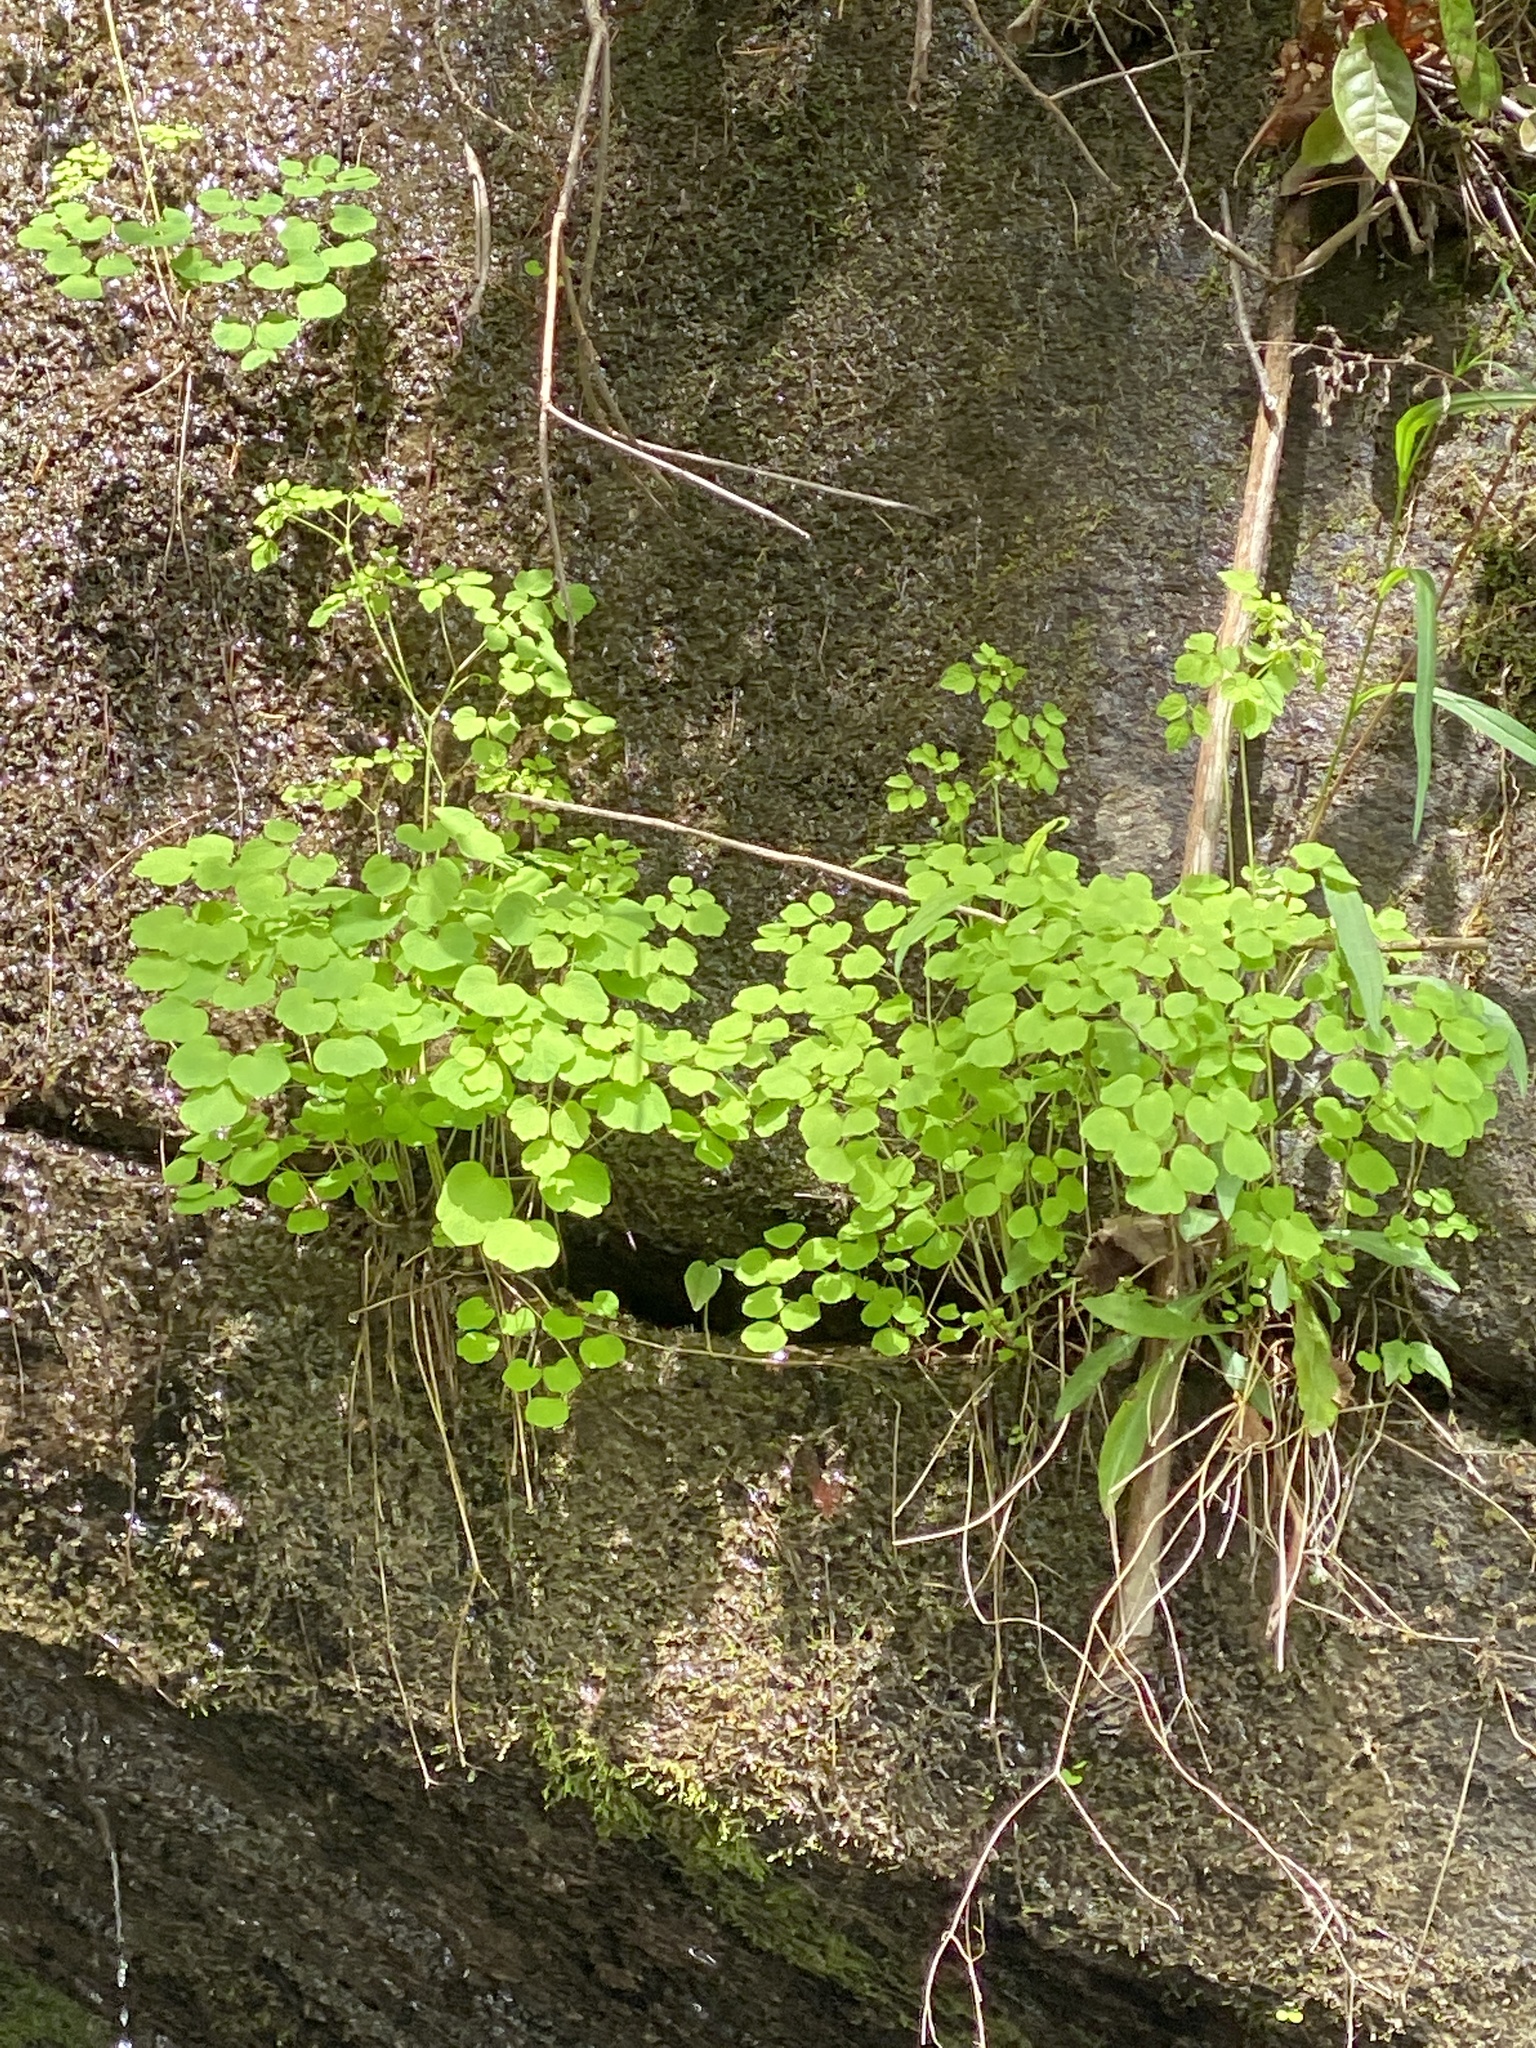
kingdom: Plantae
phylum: Tracheophyta
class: Magnoliopsida
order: Ranunculales
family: Ranunculaceae
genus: Thalictrum
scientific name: Thalictrum clavatum
